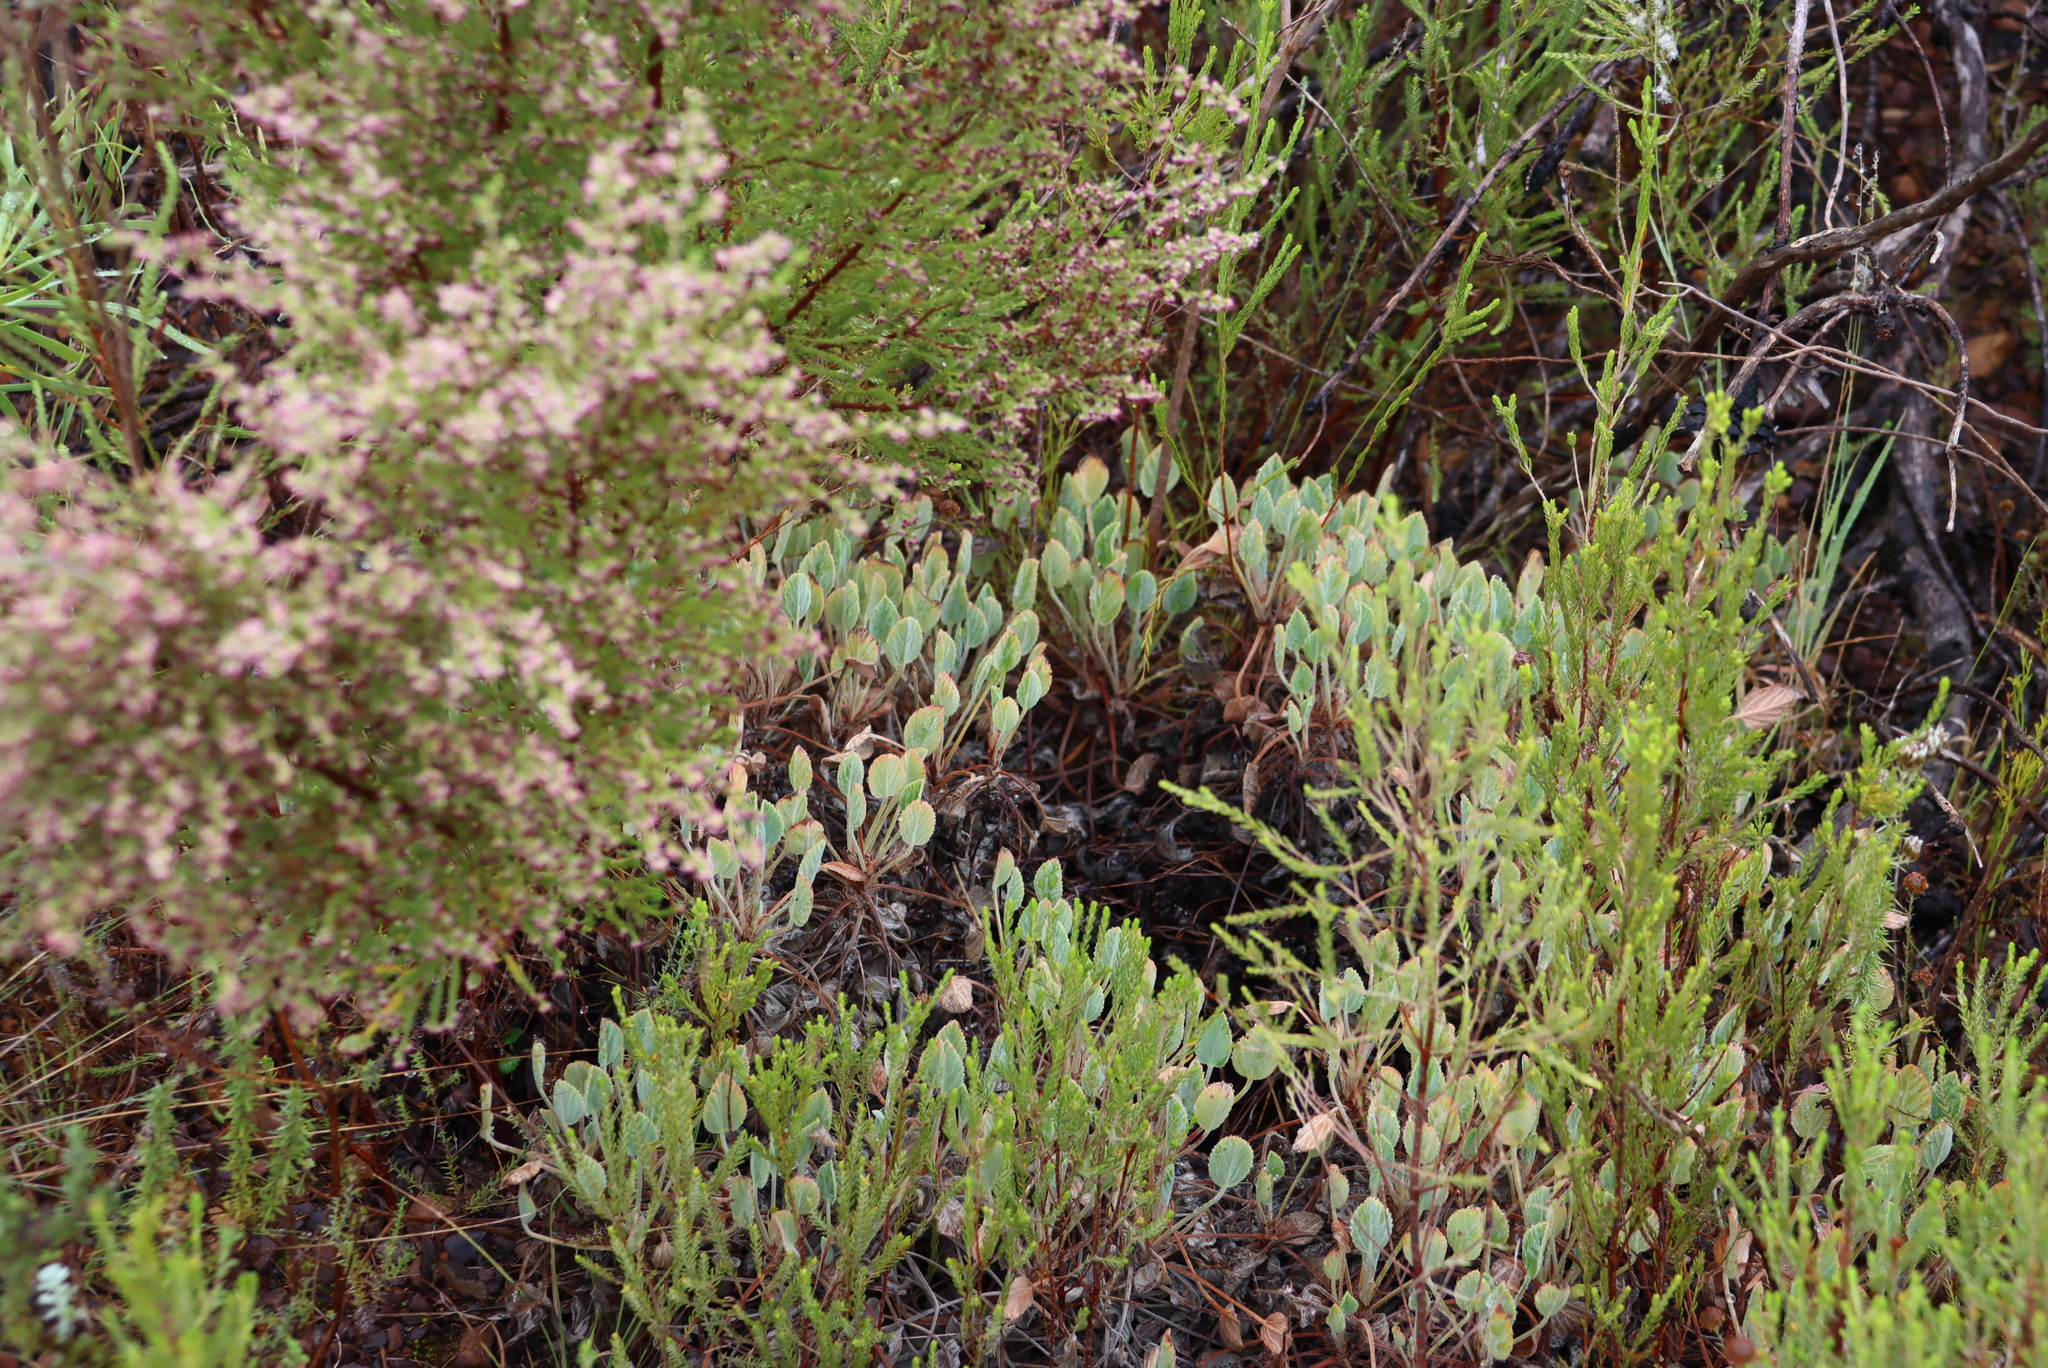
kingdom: Plantae
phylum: Tracheophyta
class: Magnoliopsida
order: Geraniales
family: Geraniaceae
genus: Pelargonium
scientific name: Pelargonium ovale
